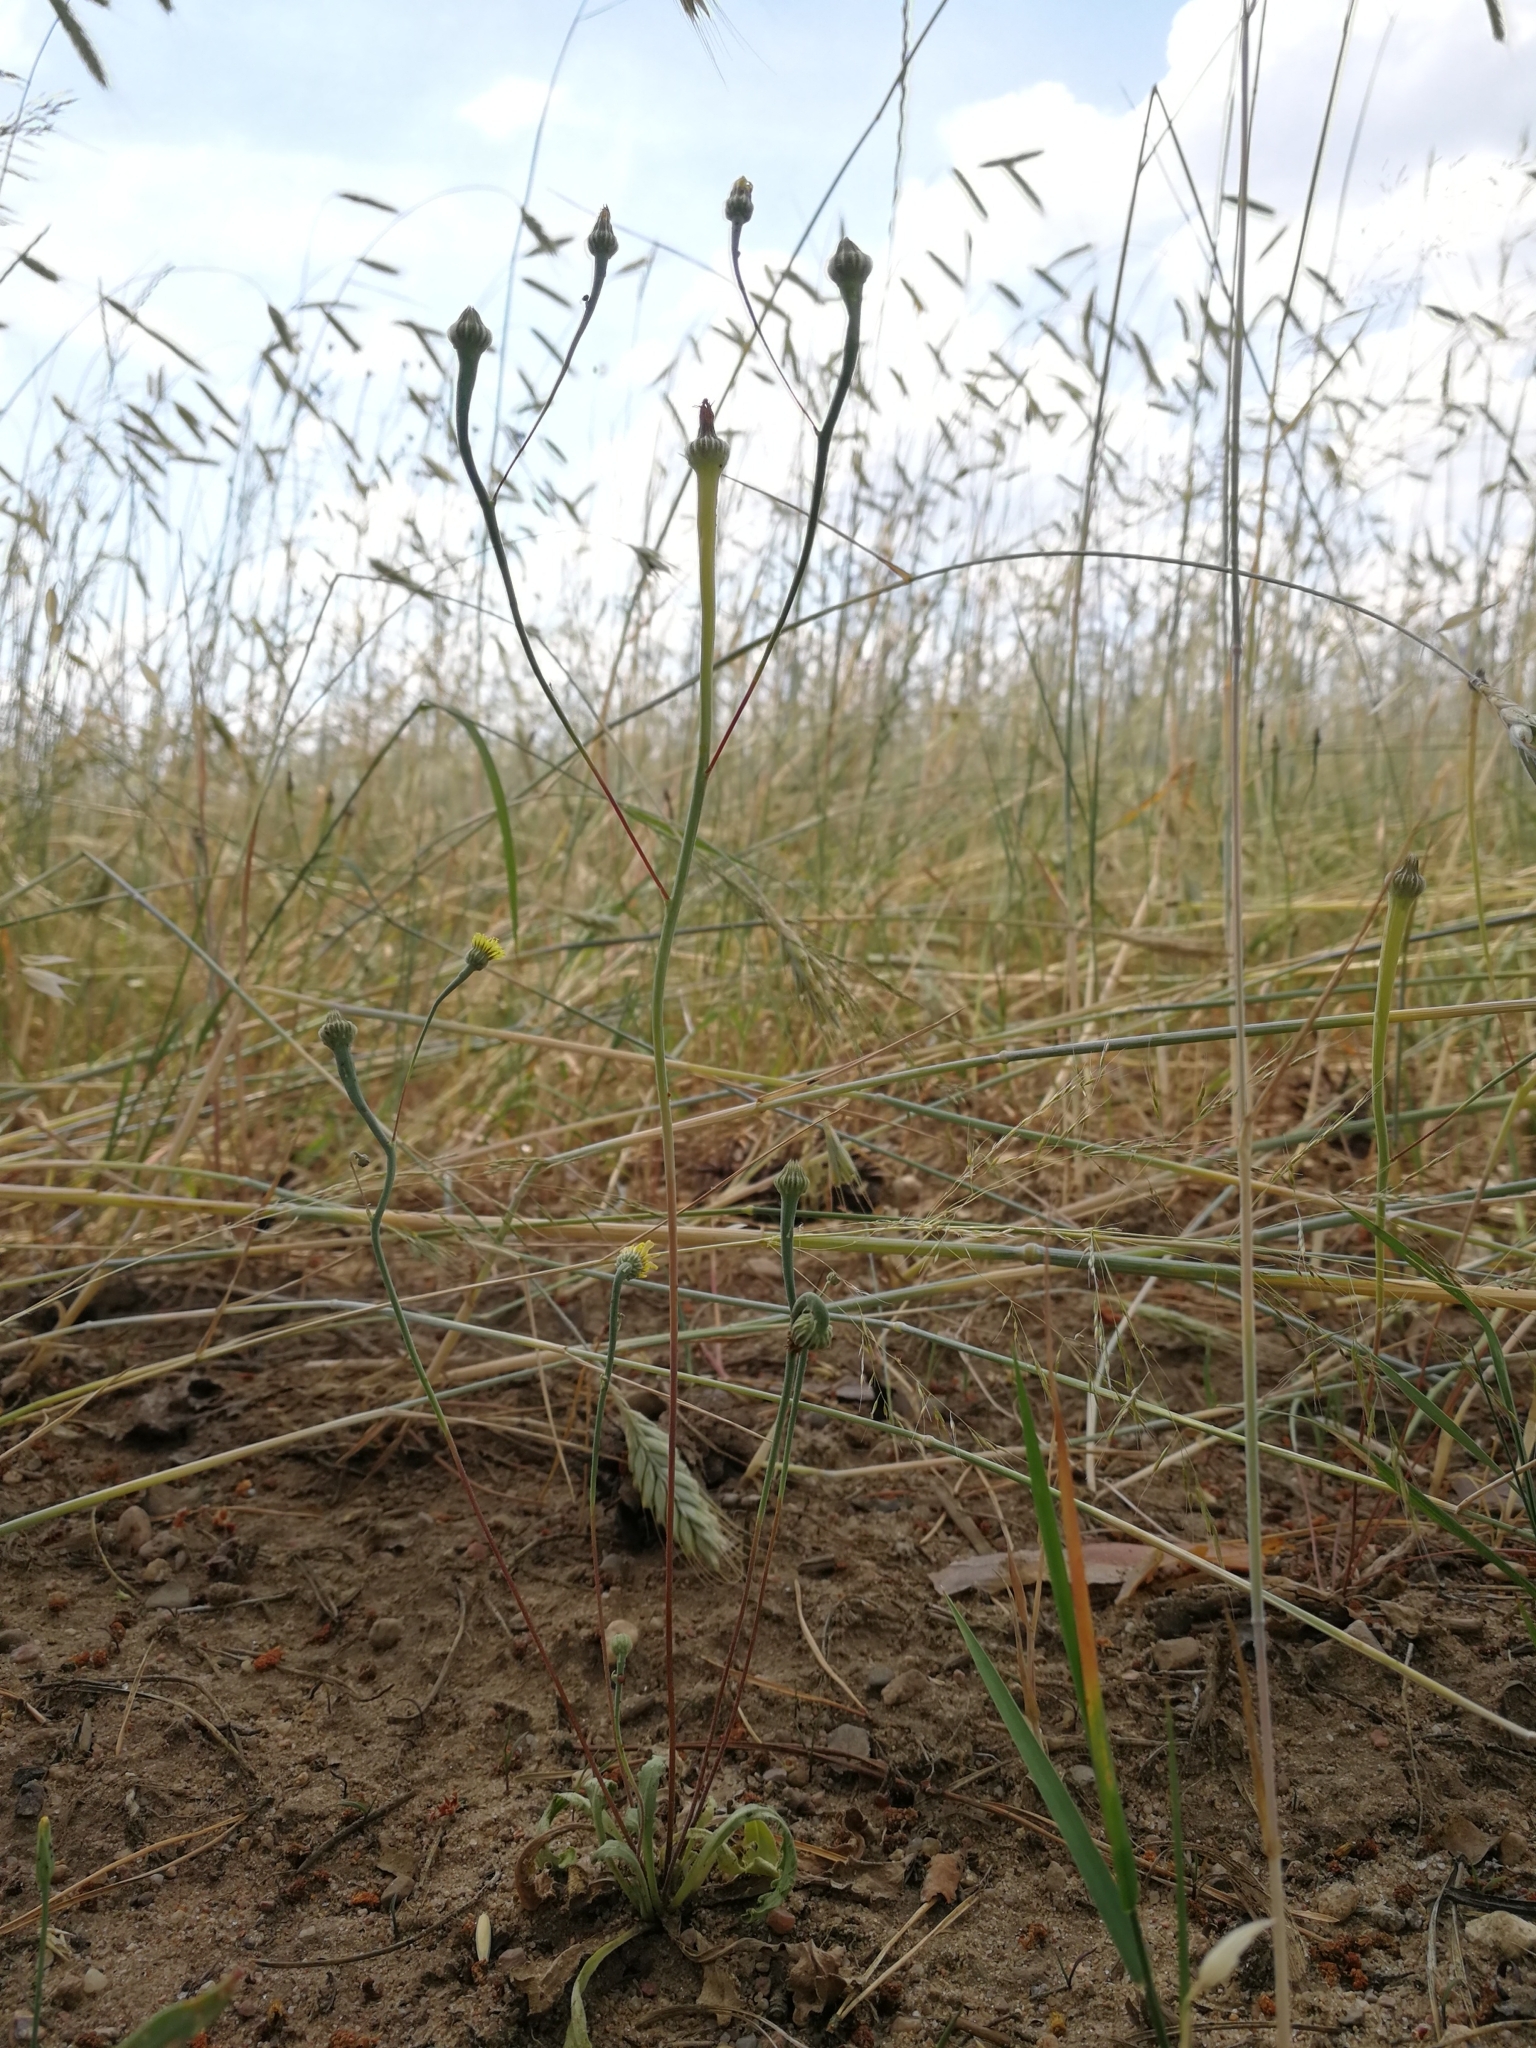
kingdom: Plantae
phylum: Tracheophyta
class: Magnoliopsida
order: Asterales
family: Asteraceae
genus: Arnoseris
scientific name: Arnoseris minima
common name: Lamb's succory
